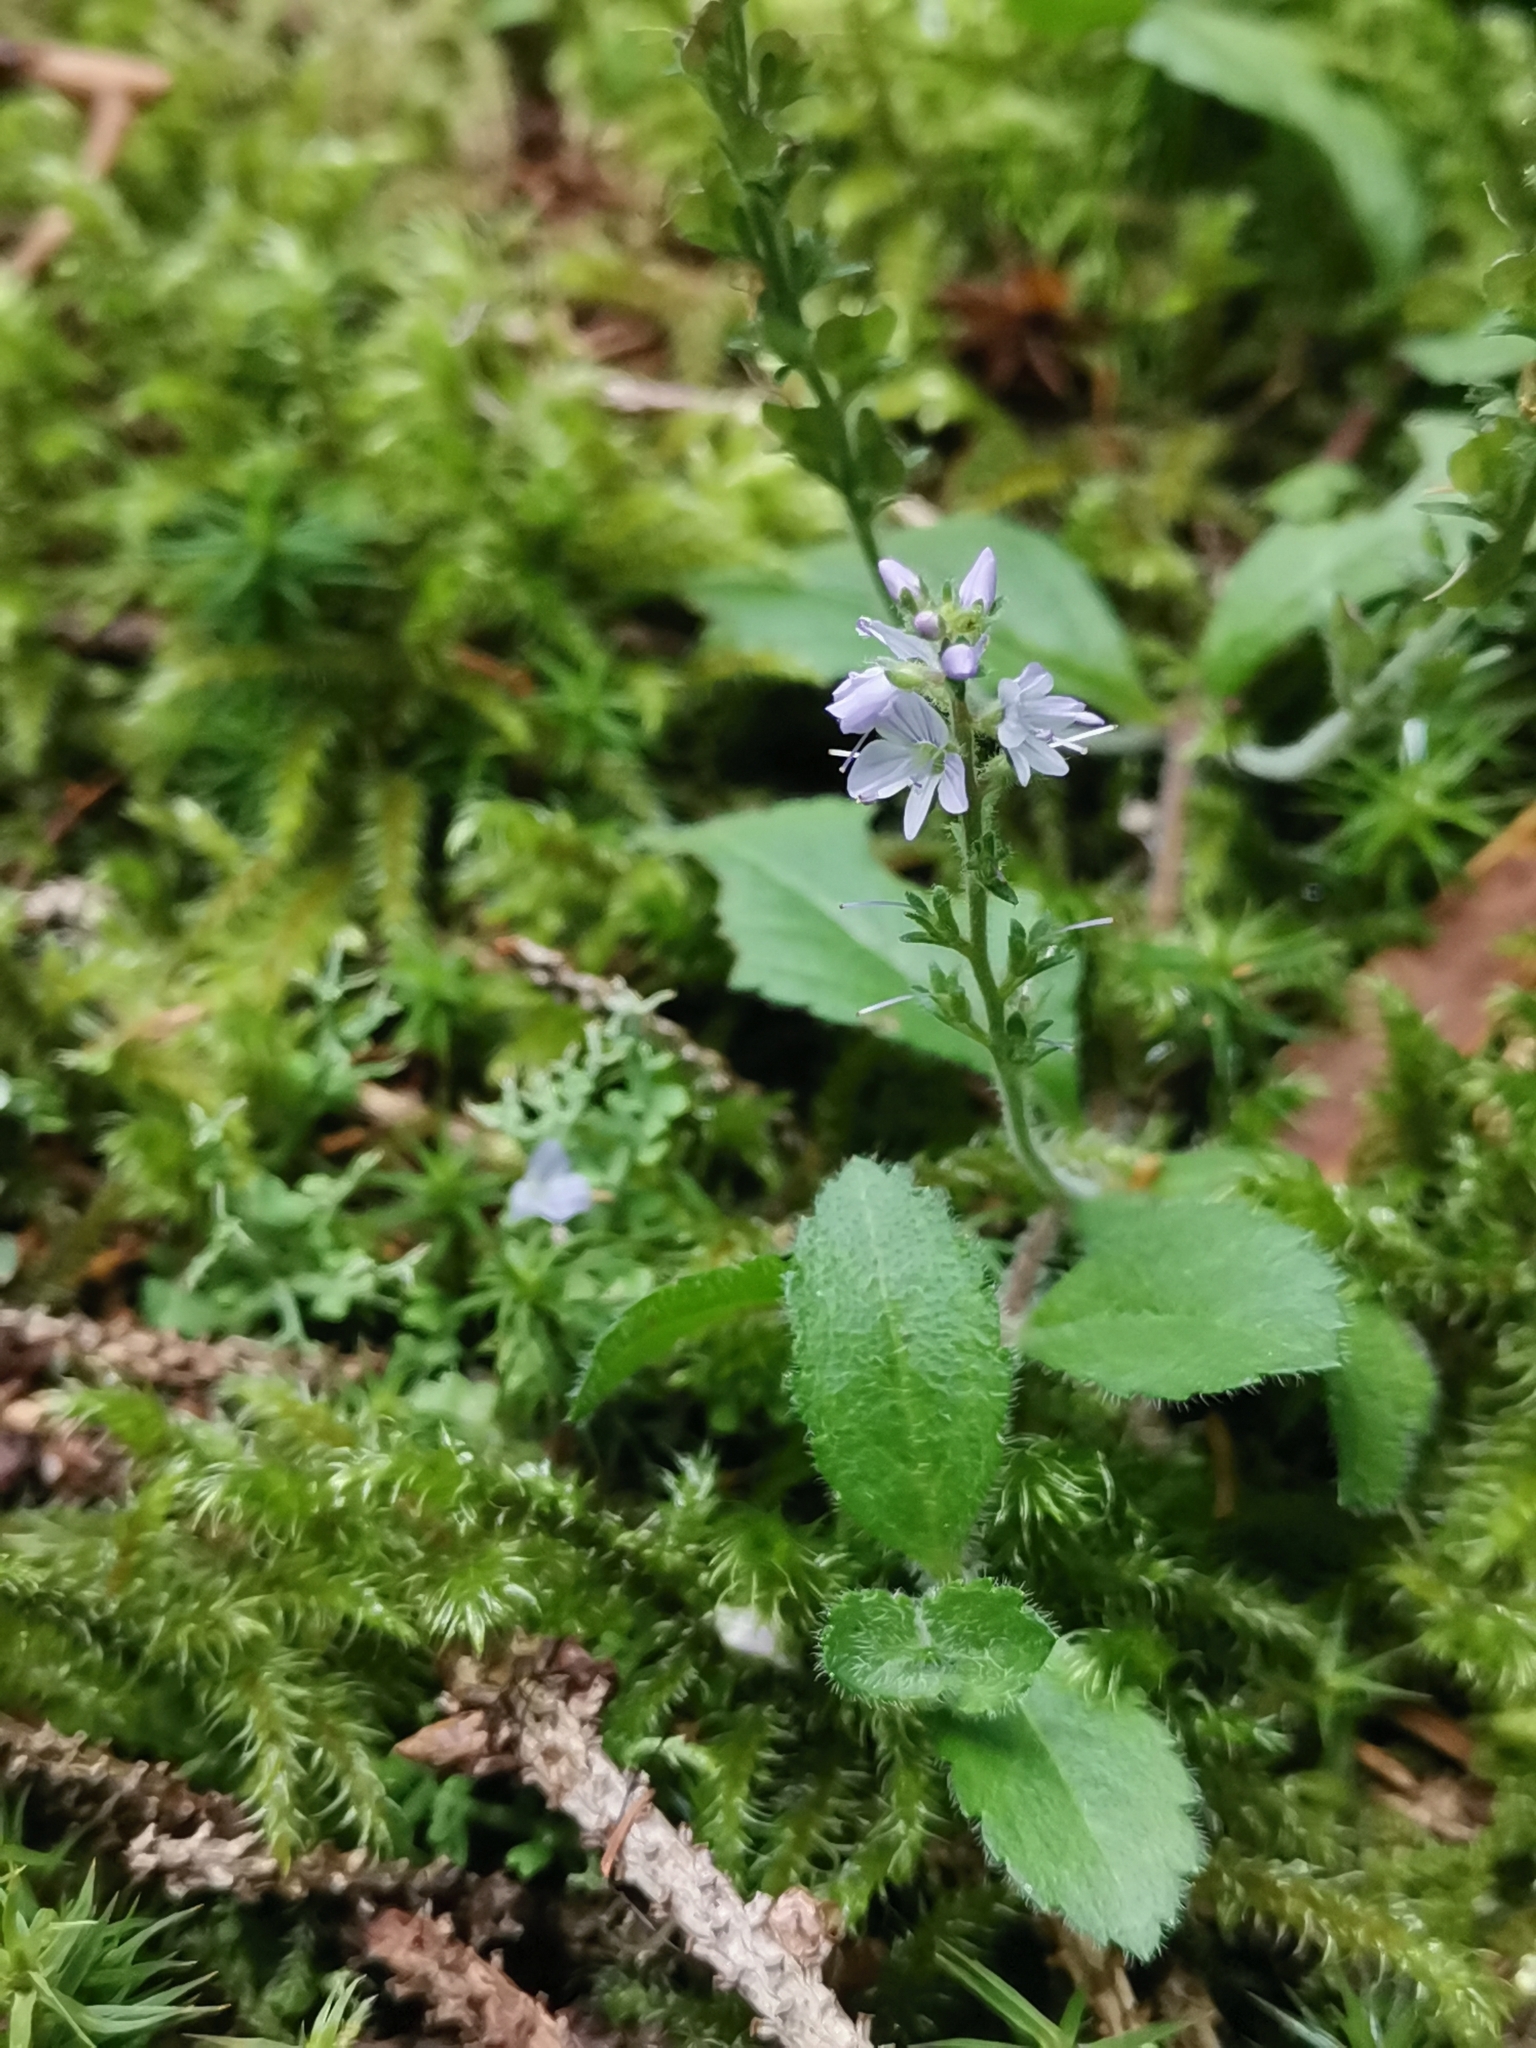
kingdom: Plantae
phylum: Tracheophyta
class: Magnoliopsida
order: Lamiales
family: Plantaginaceae
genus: Veronica
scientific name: Veronica officinalis
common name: Common speedwell
